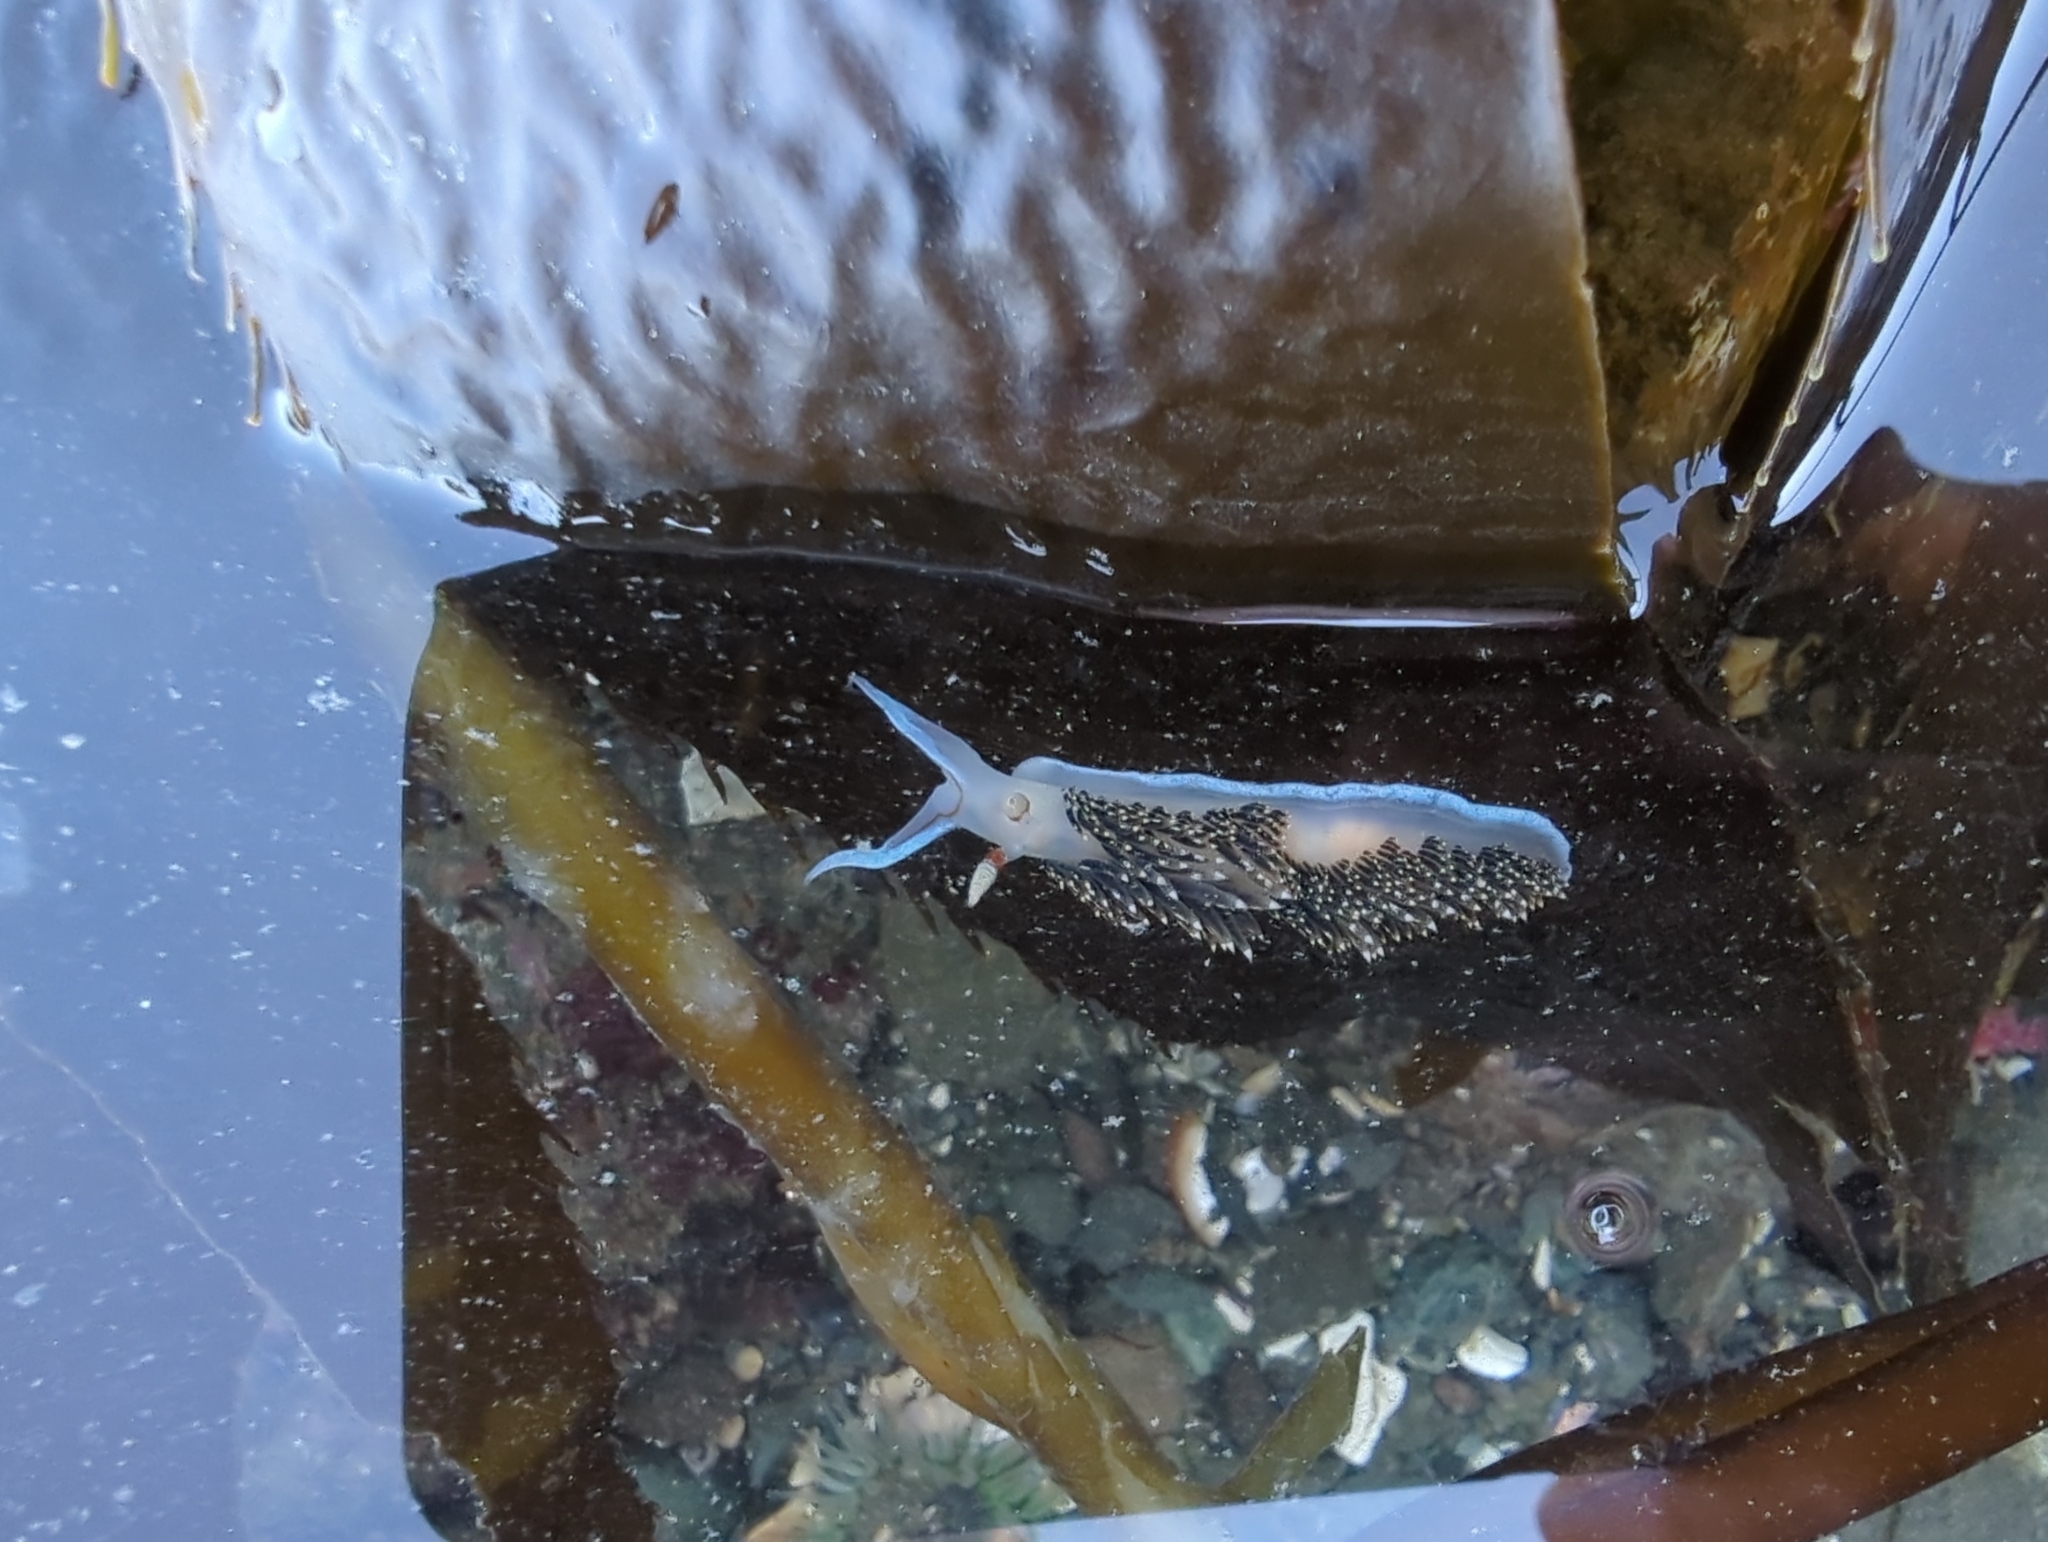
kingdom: Animalia
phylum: Mollusca
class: Gastropoda
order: Nudibranchia
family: Facelinidae
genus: Phidiana
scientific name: Phidiana hiltoni
